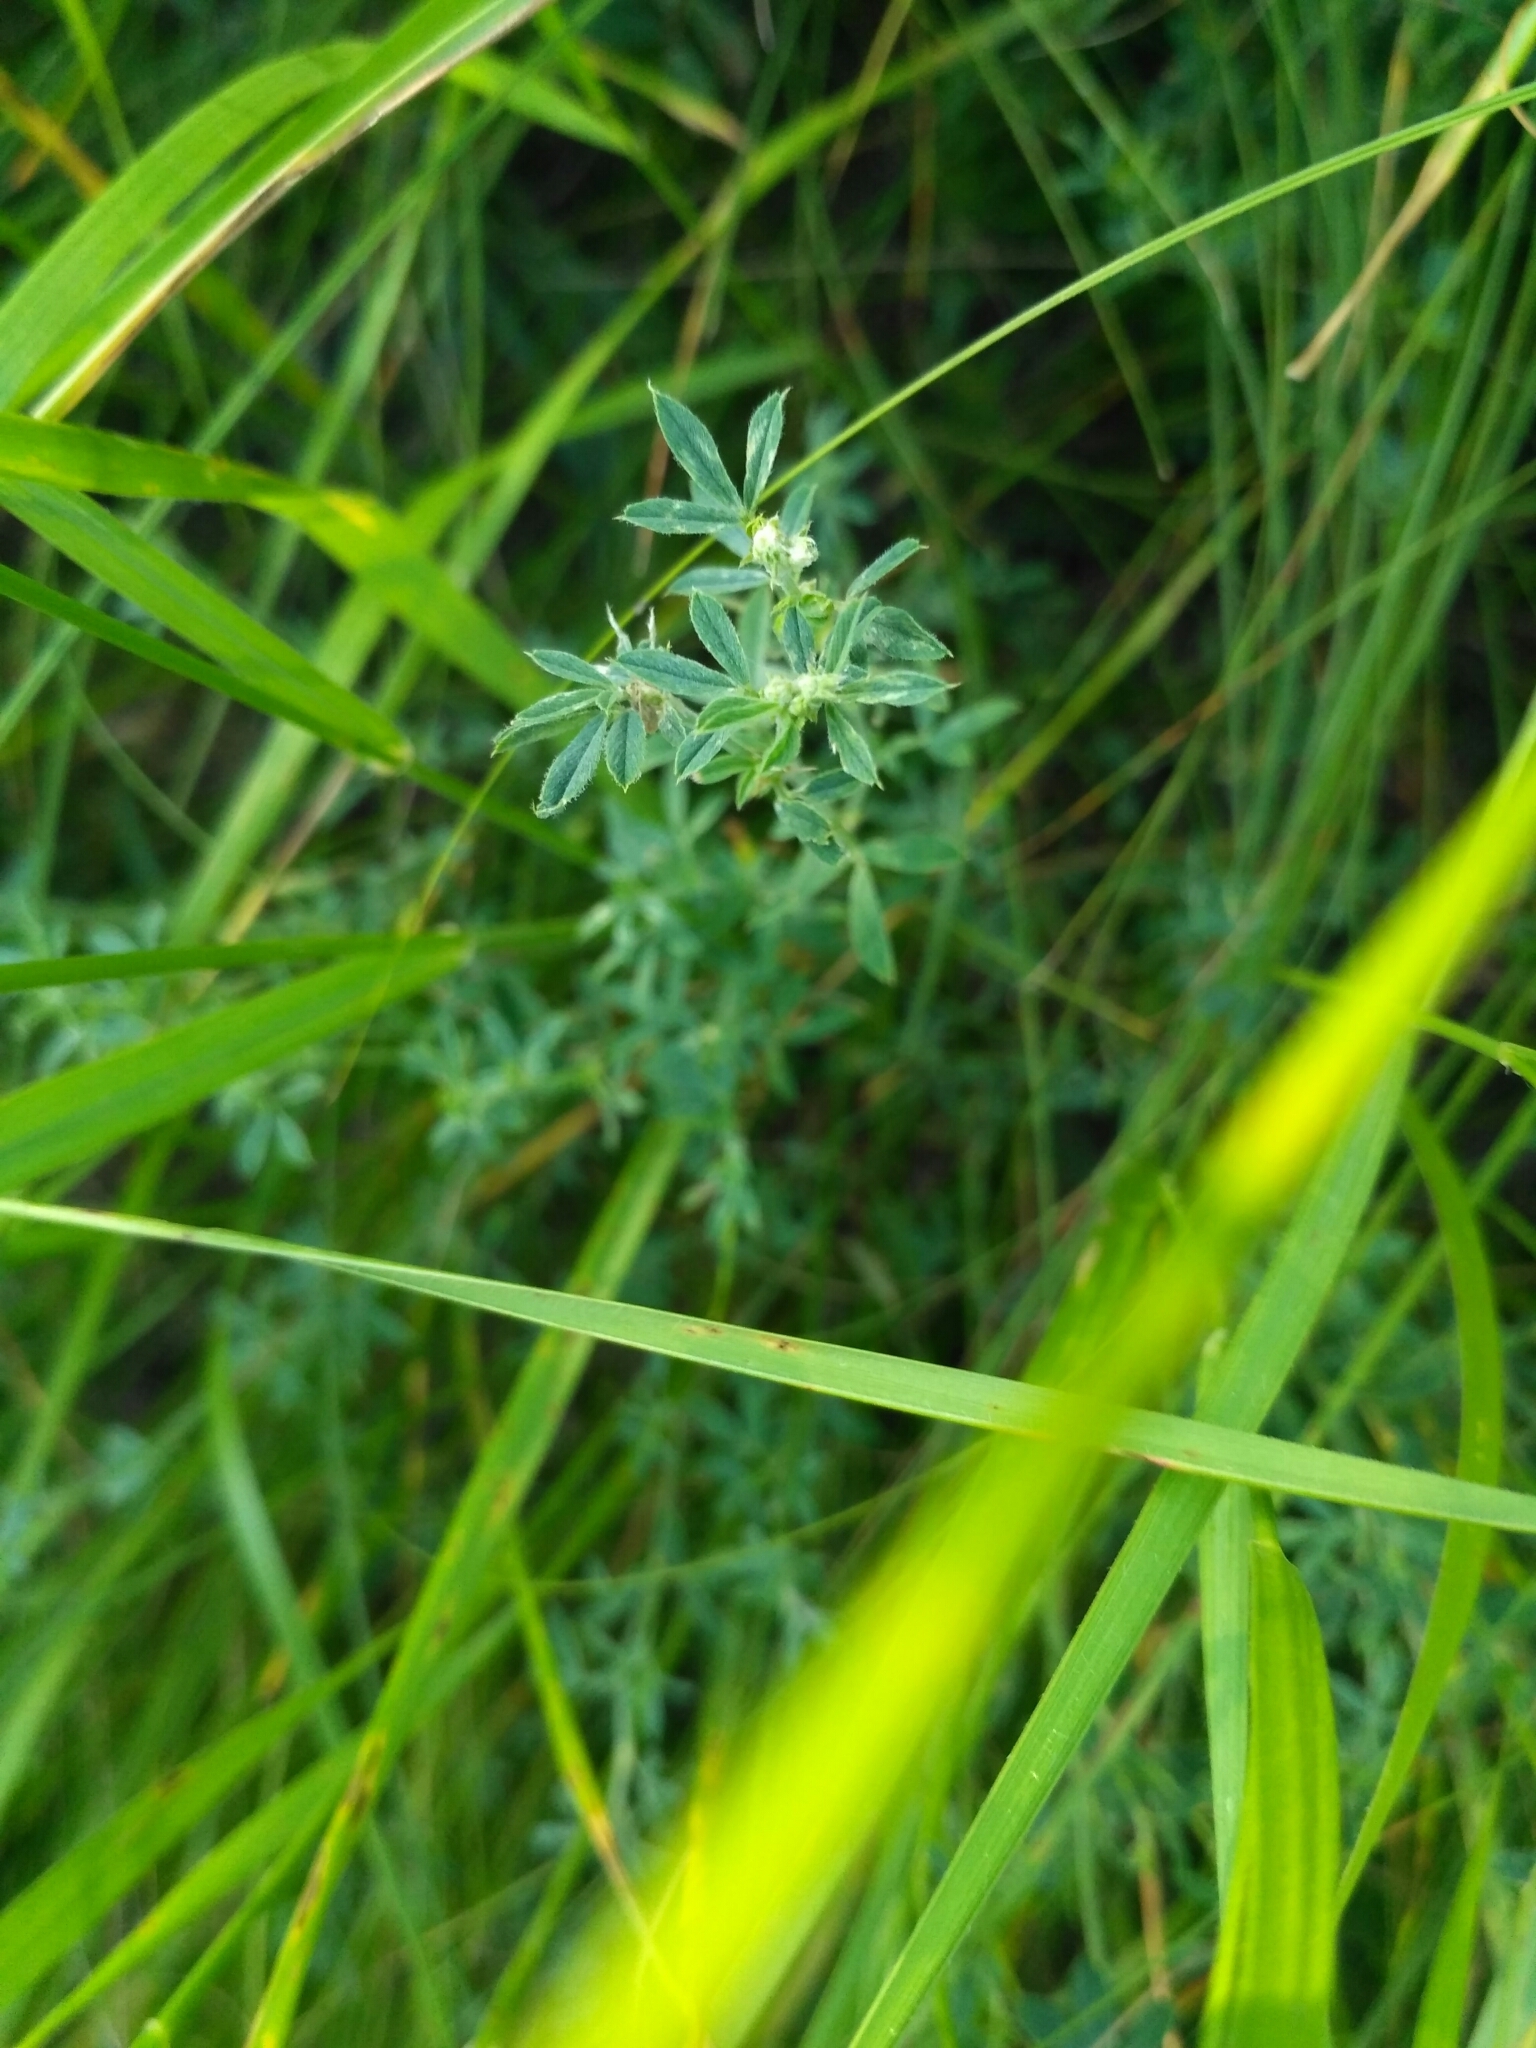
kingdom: Plantae
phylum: Tracheophyta
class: Magnoliopsida
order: Fabales
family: Fabaceae
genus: Medicago
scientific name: Medicago falcata
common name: Sickle medick
